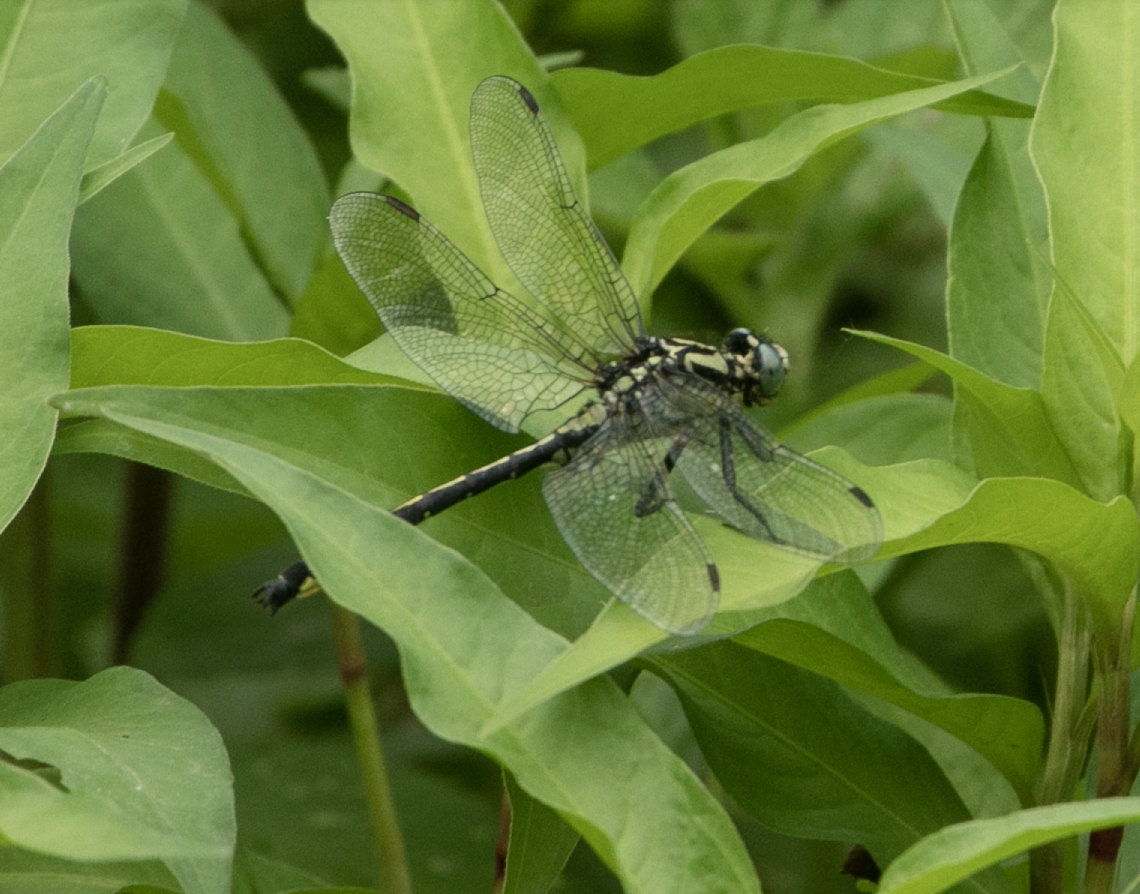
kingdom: Animalia
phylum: Arthropoda
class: Insecta
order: Odonata
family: Gomphidae
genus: Gomphus
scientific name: Gomphus vulgatissimus
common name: Club-tailed dragonfly
